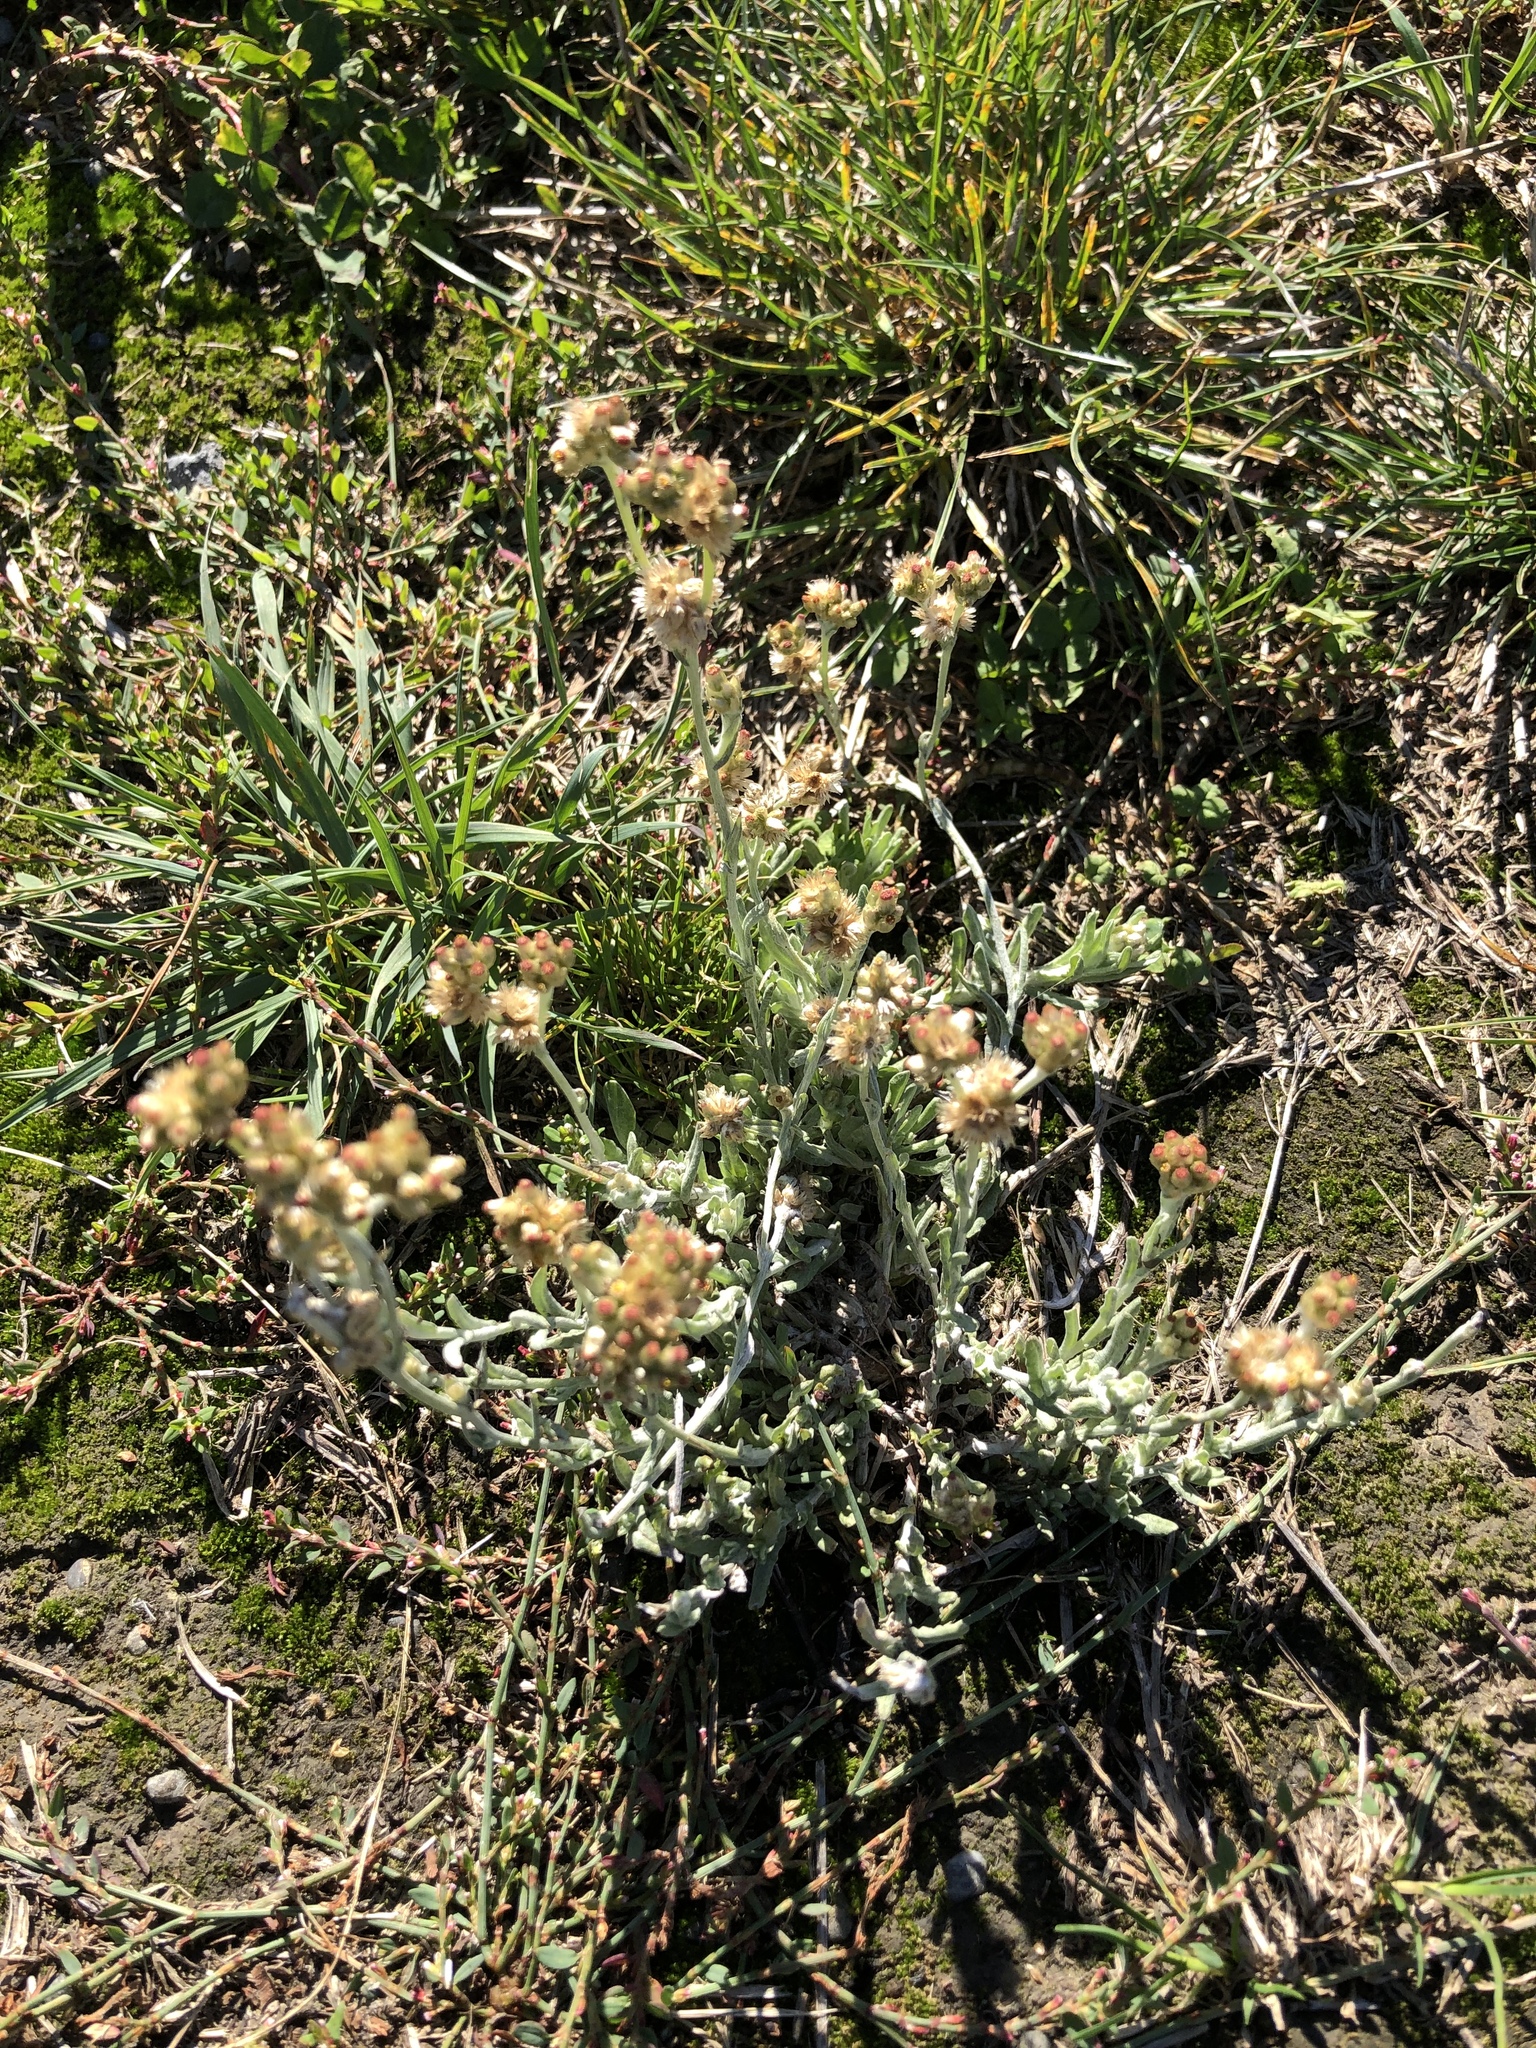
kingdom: Plantae
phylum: Tracheophyta
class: Magnoliopsida
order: Asterales
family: Asteraceae
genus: Helichrysum
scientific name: Helichrysum luteoalbum
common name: Daisy
